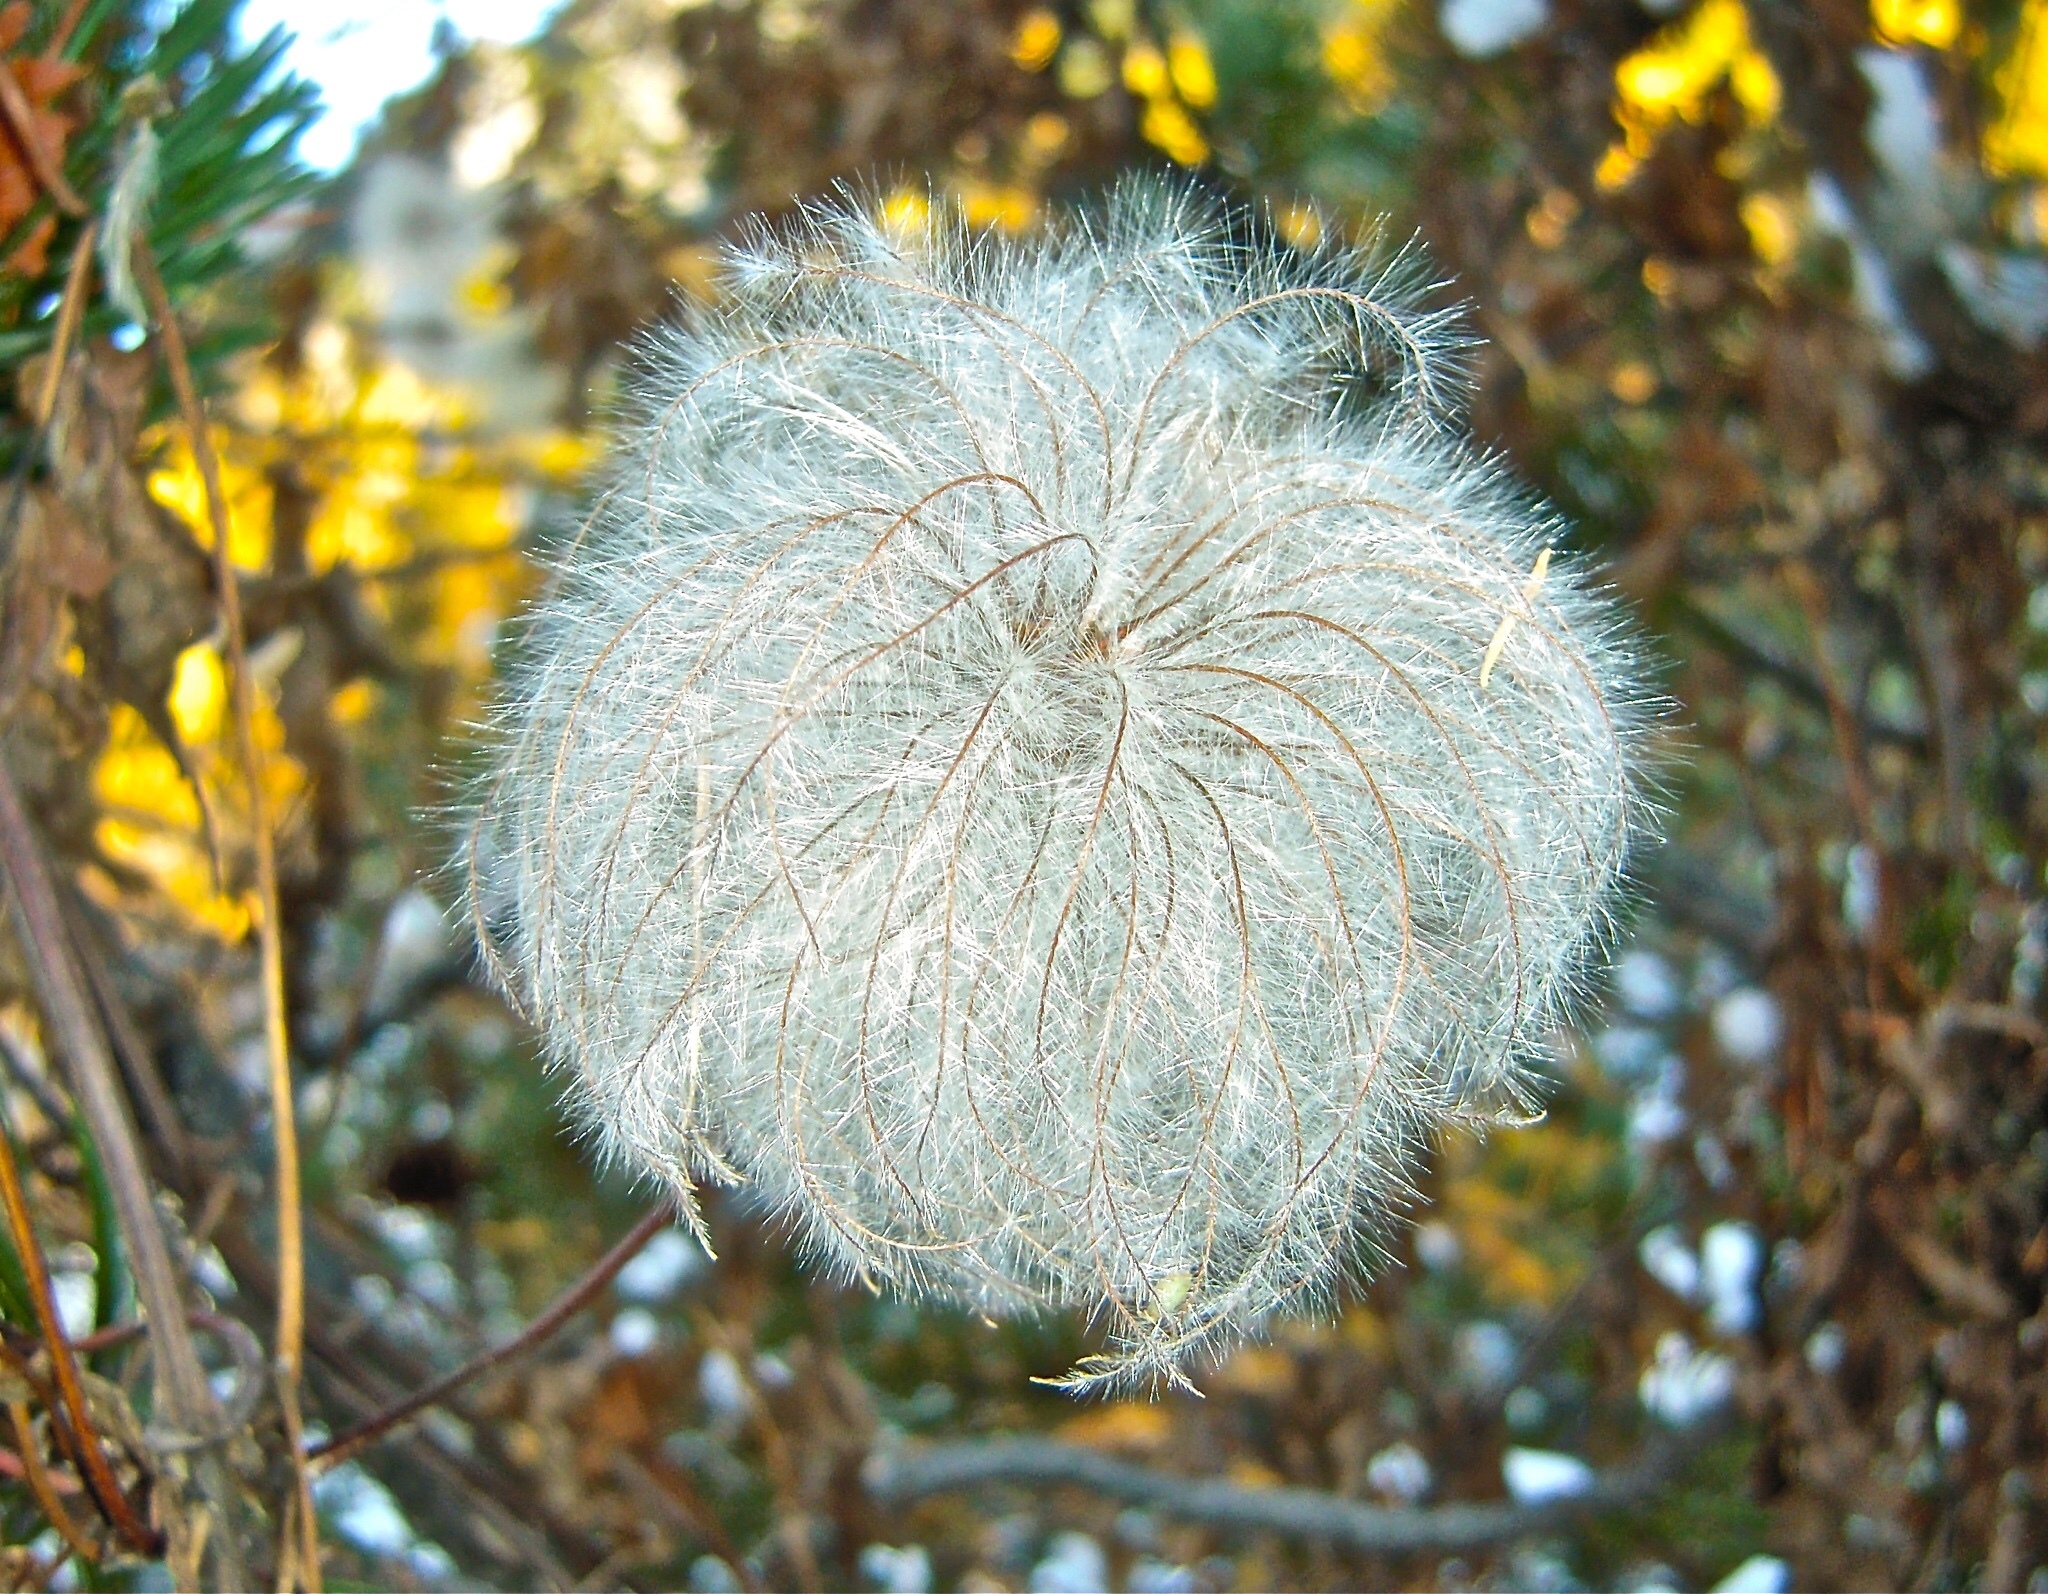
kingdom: Plantae
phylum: Tracheophyta
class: Magnoliopsida
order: Ranunculales
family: Ranunculaceae
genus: Clematis
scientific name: Clematis alpina
